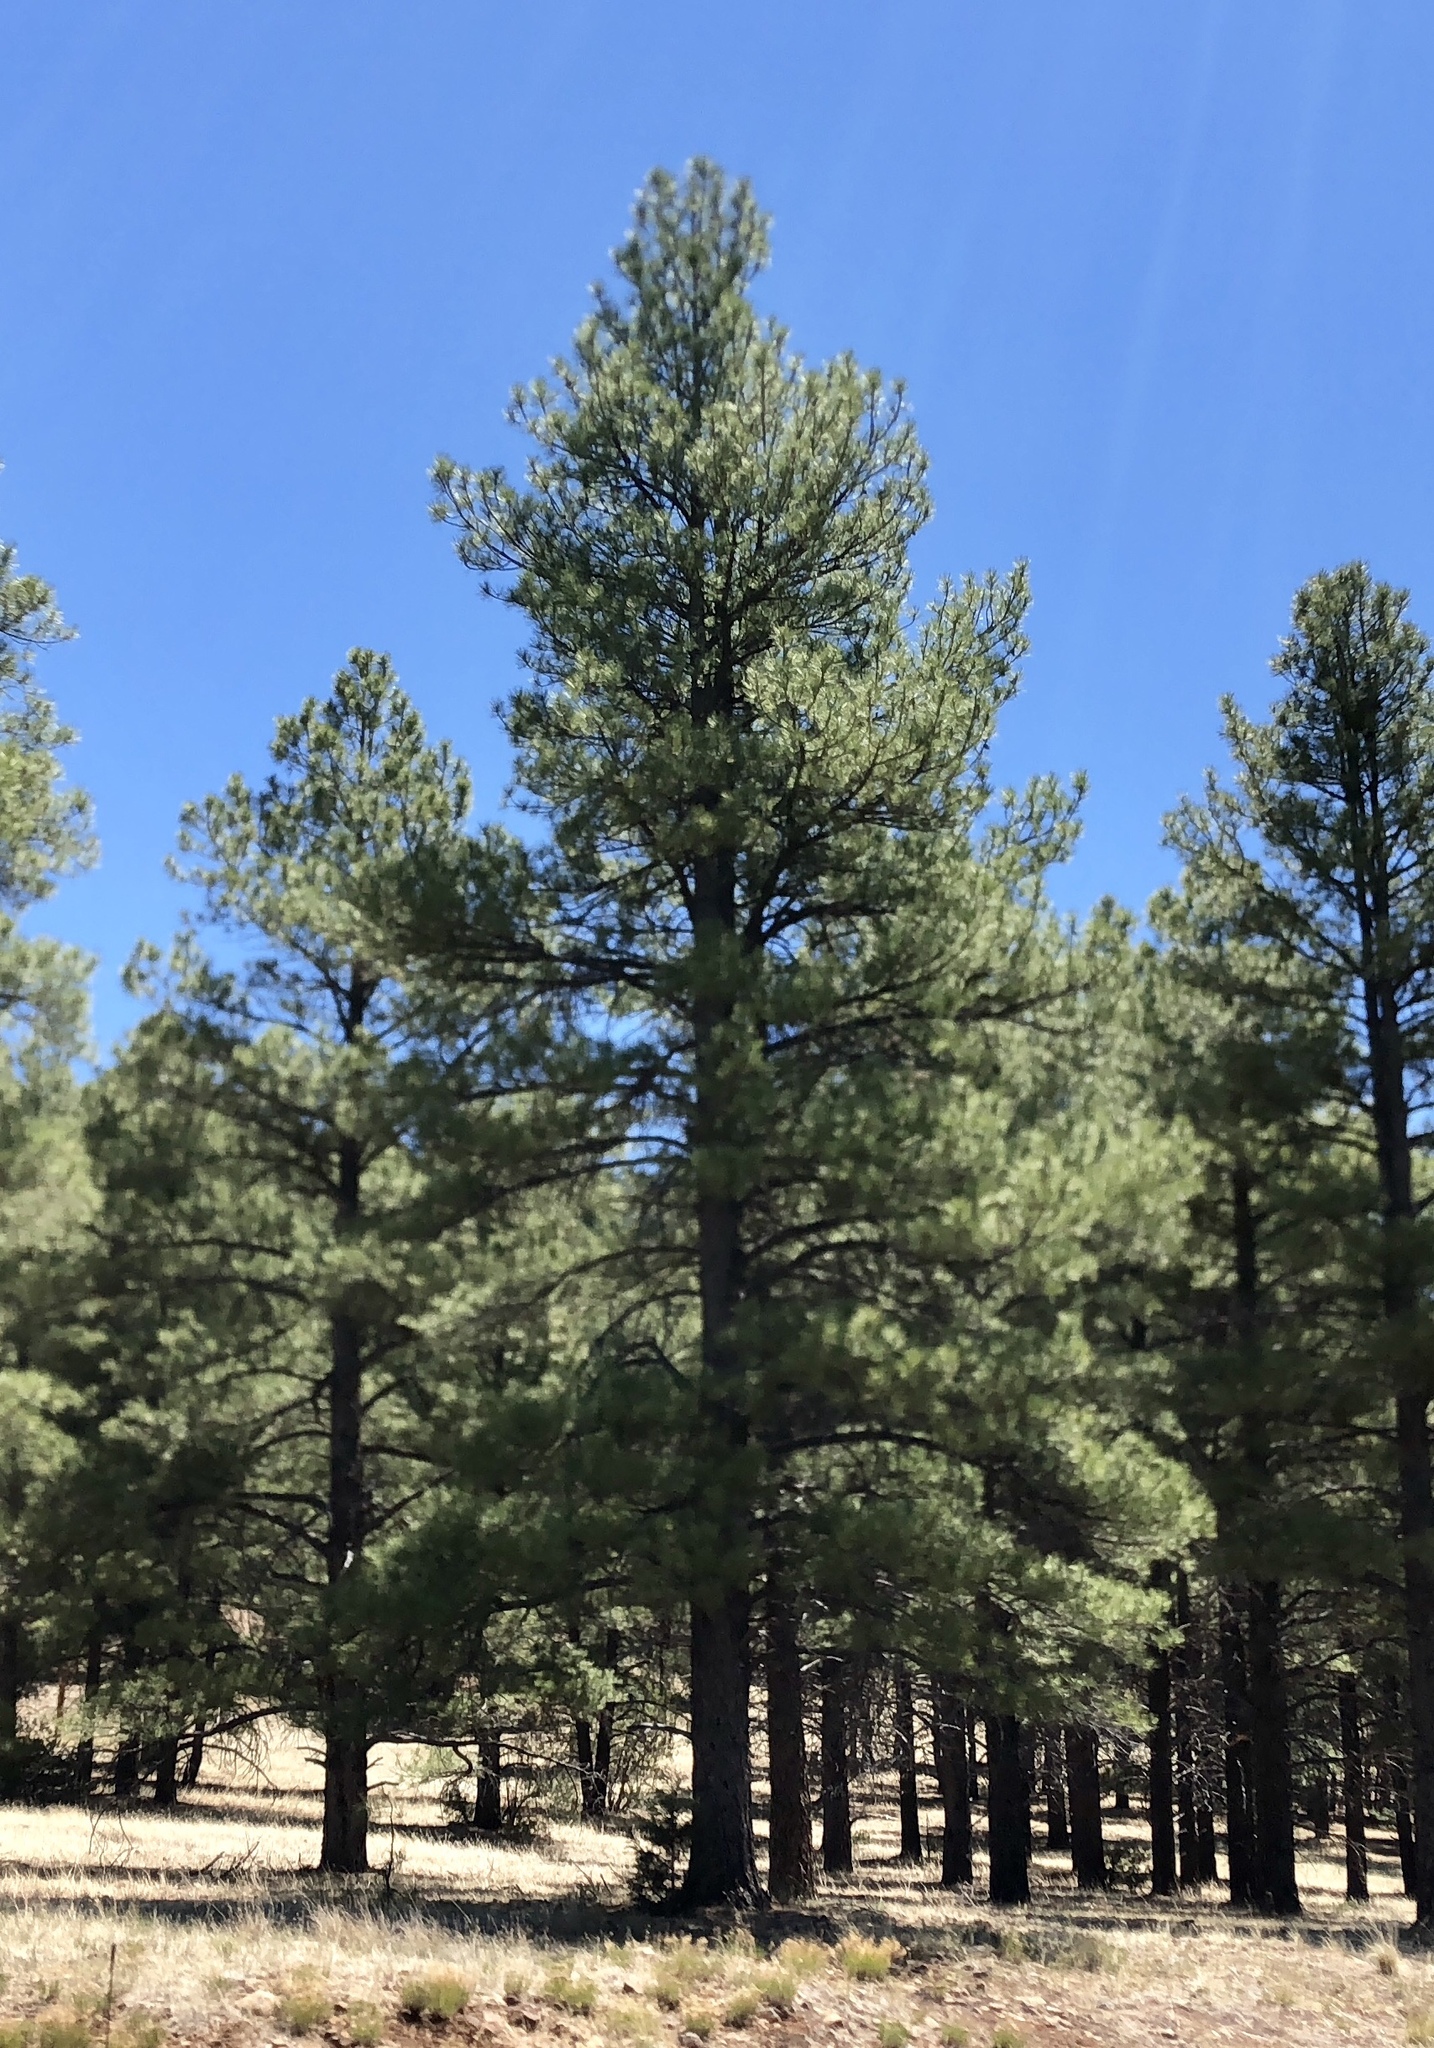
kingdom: Plantae
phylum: Tracheophyta
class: Pinopsida
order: Pinales
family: Pinaceae
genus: Pinus
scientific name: Pinus ponderosa
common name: Western yellow-pine
